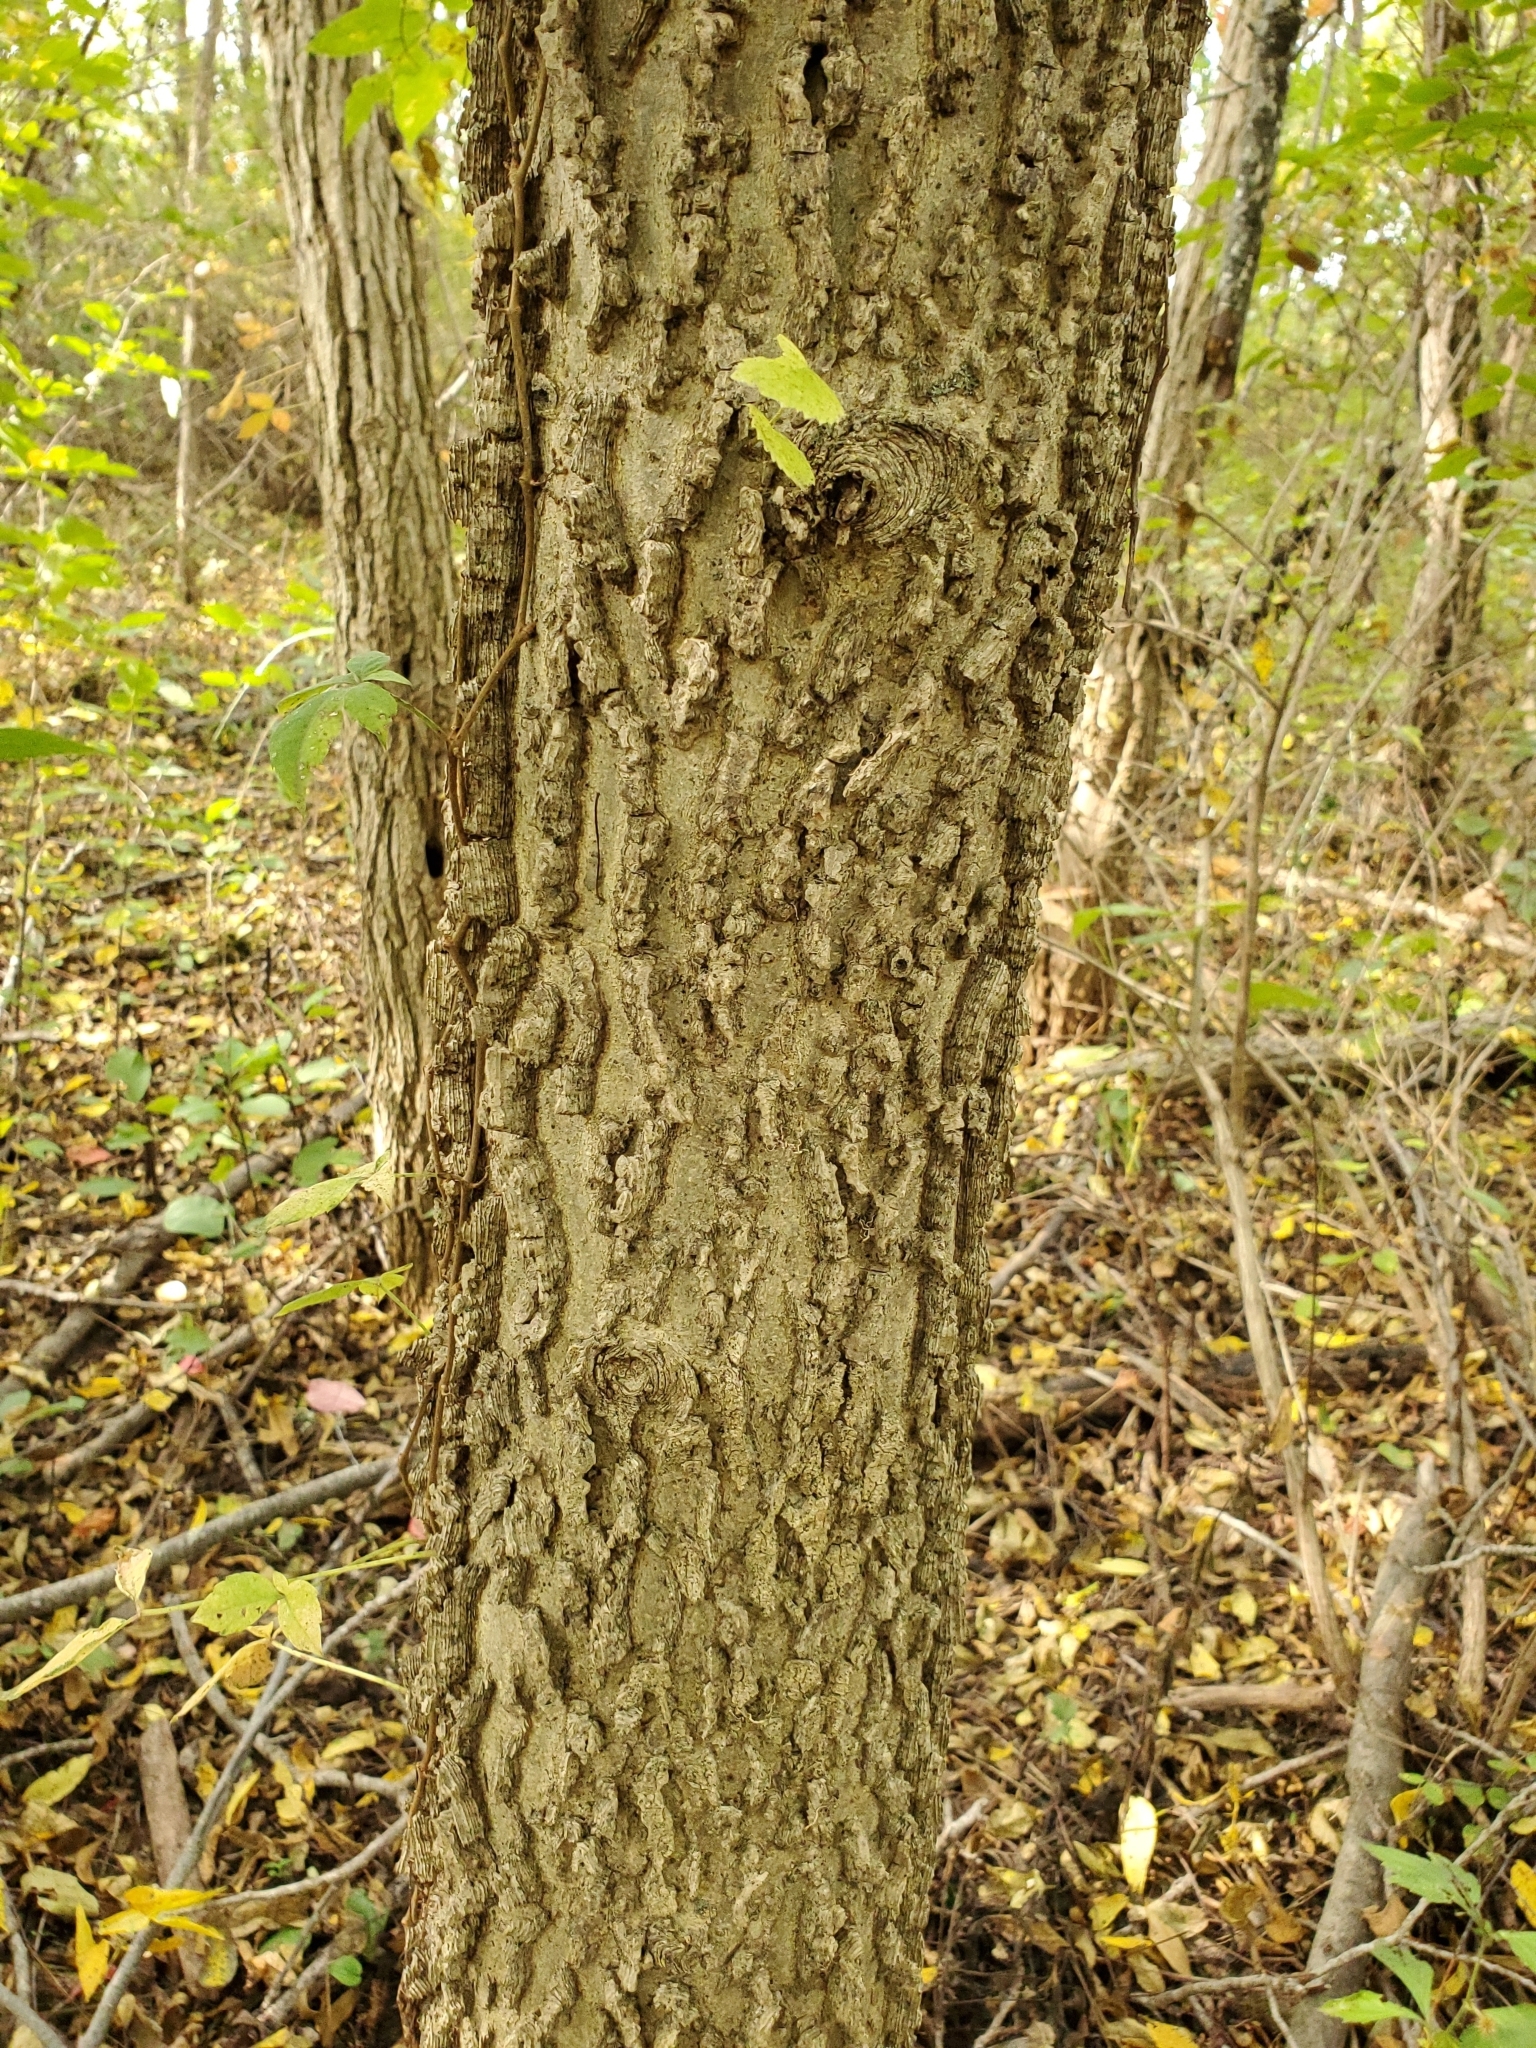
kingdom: Plantae
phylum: Tracheophyta
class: Magnoliopsida
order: Rosales
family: Cannabaceae
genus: Celtis
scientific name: Celtis occidentalis
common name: Common hackberry
